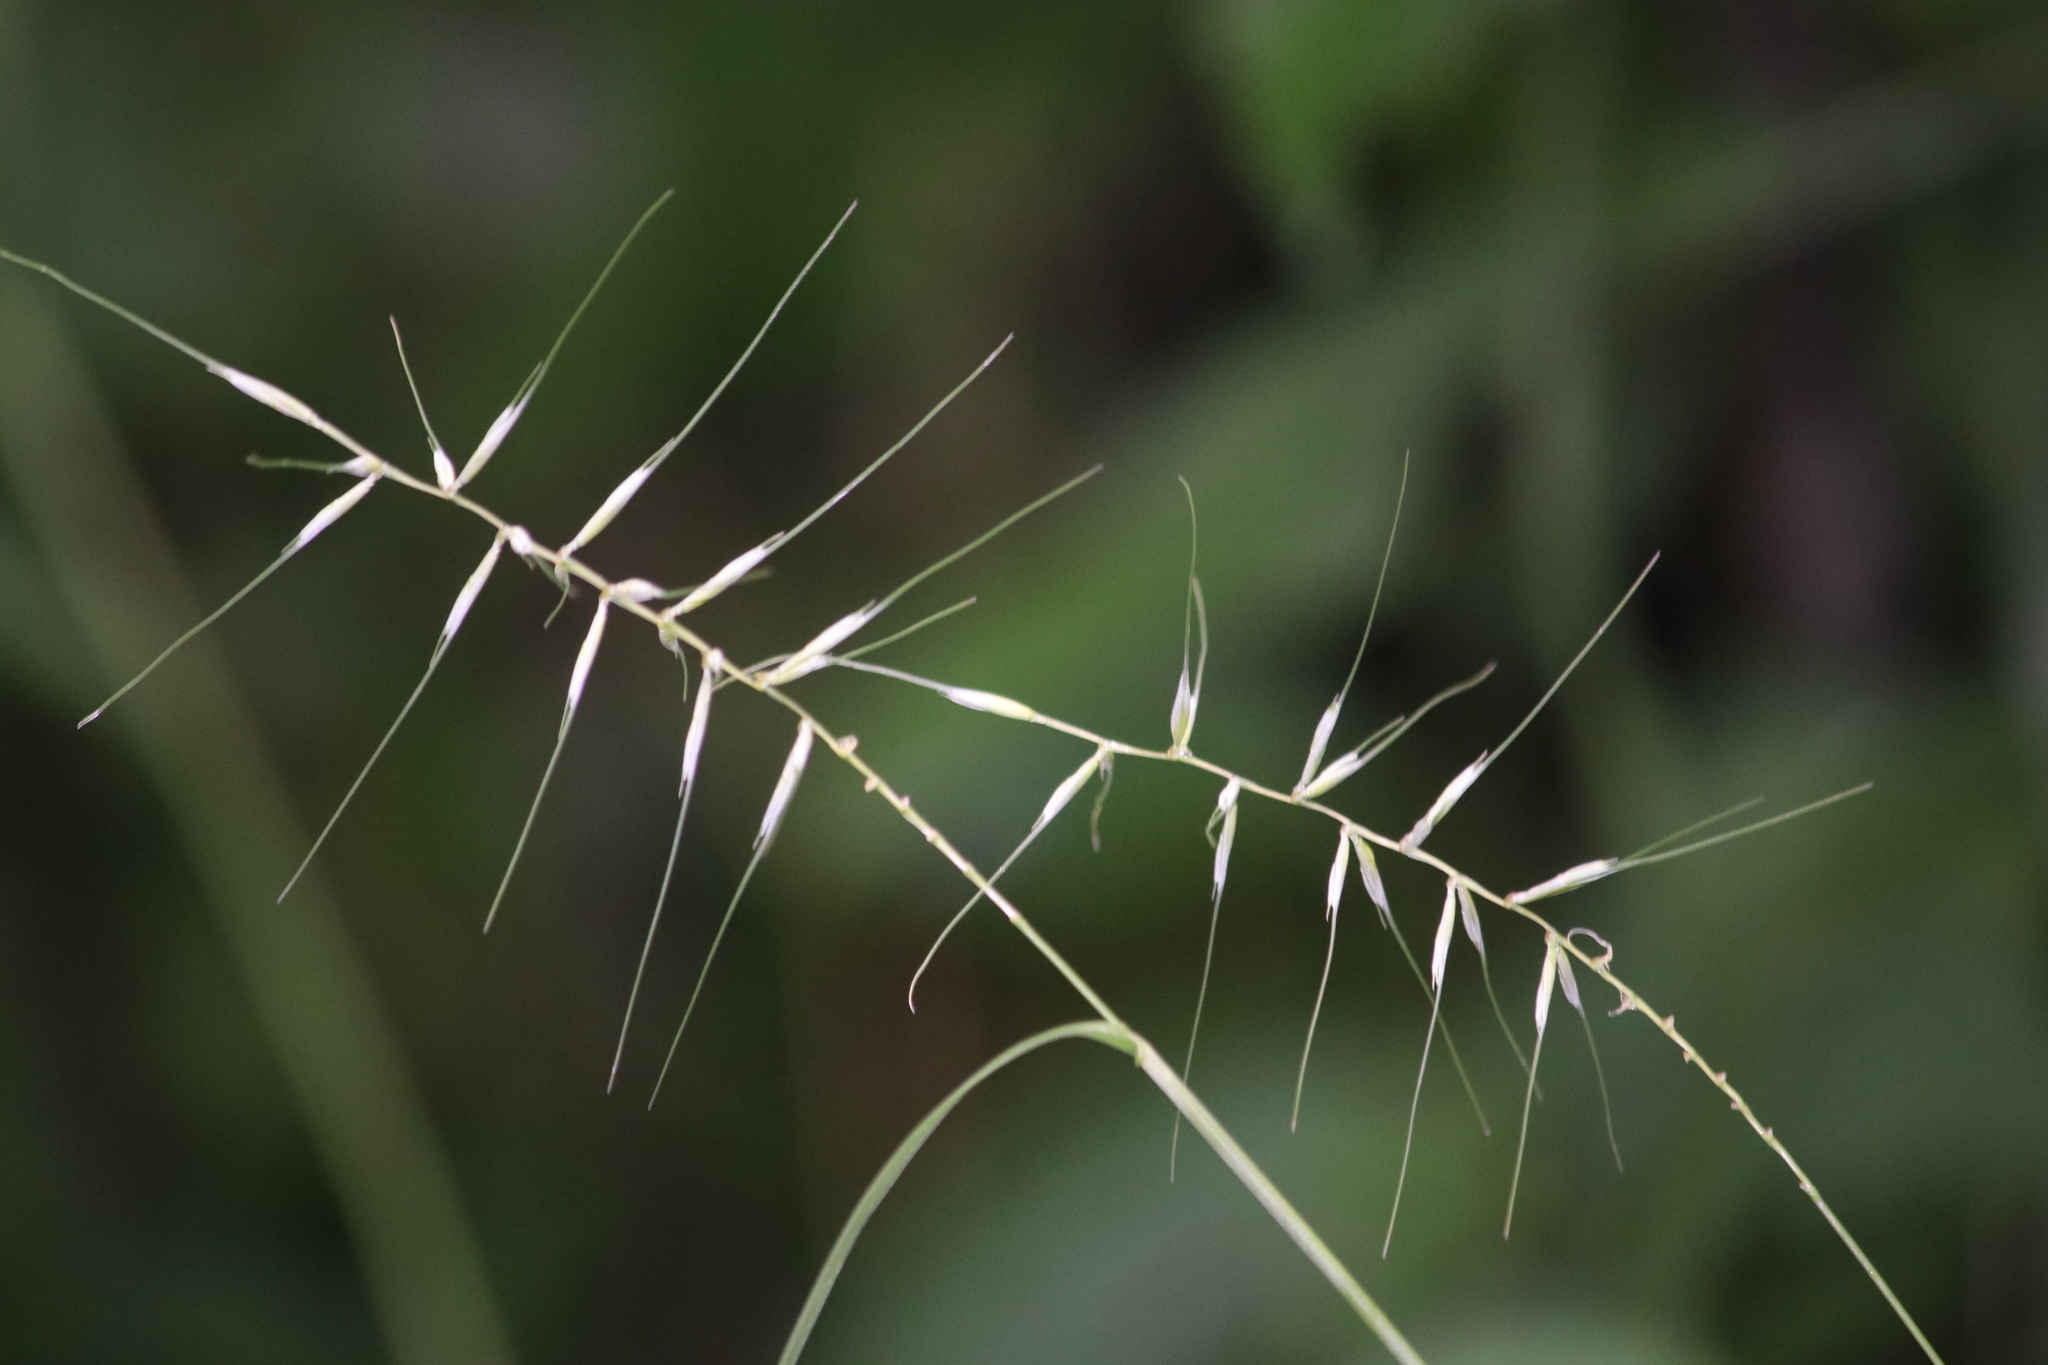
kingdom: Plantae
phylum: Tracheophyta
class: Liliopsida
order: Poales
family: Poaceae
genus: Elymus
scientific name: Elymus hystrix
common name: Bottlebrush grass
